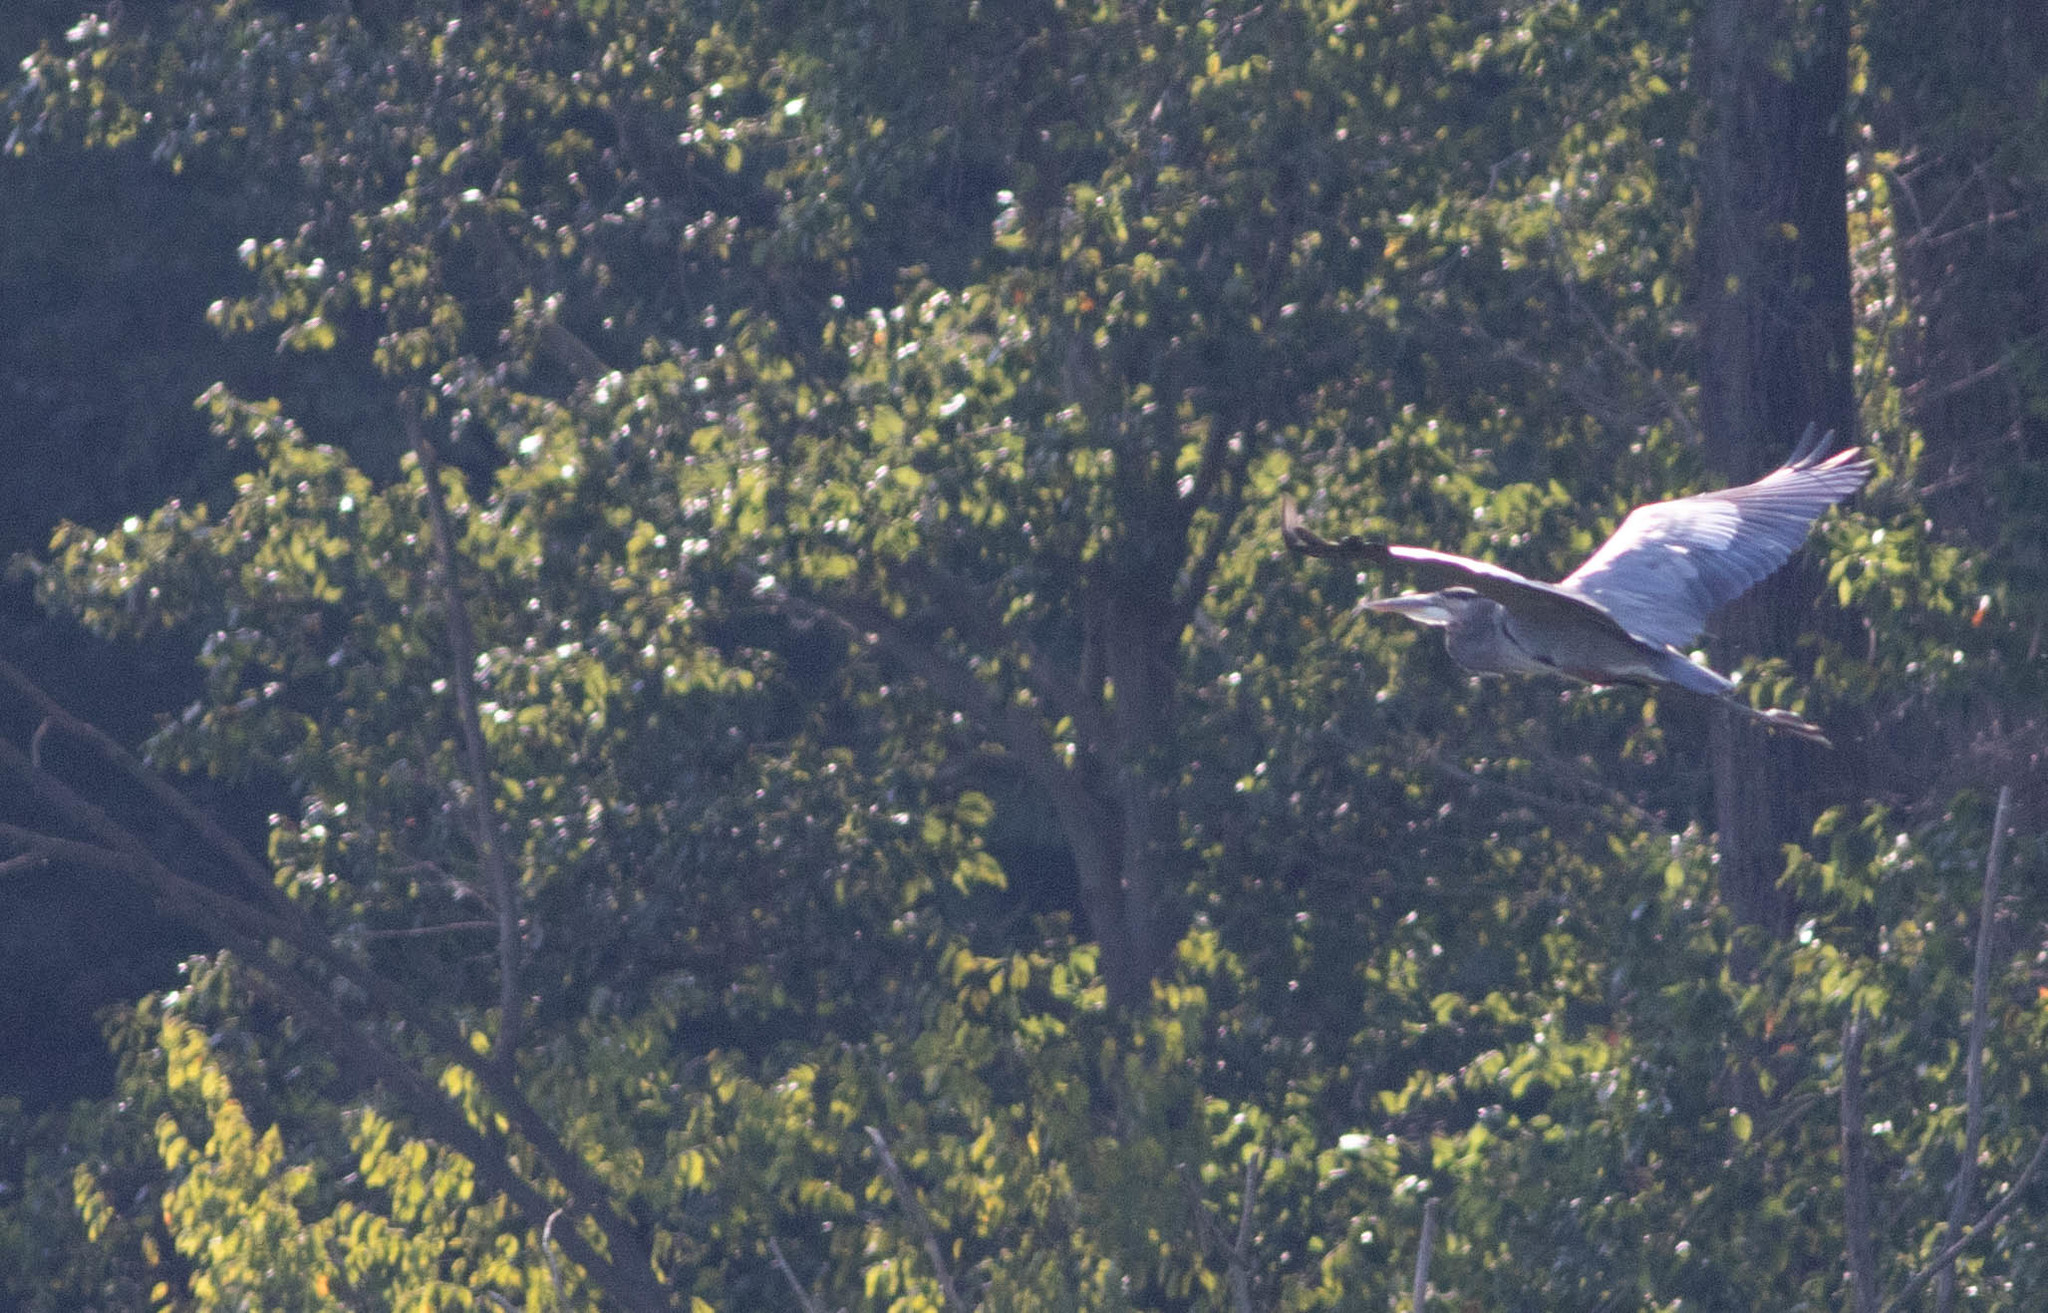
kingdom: Animalia
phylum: Chordata
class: Aves
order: Pelecaniformes
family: Ardeidae
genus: Ardea
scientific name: Ardea herodias
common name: Great blue heron
